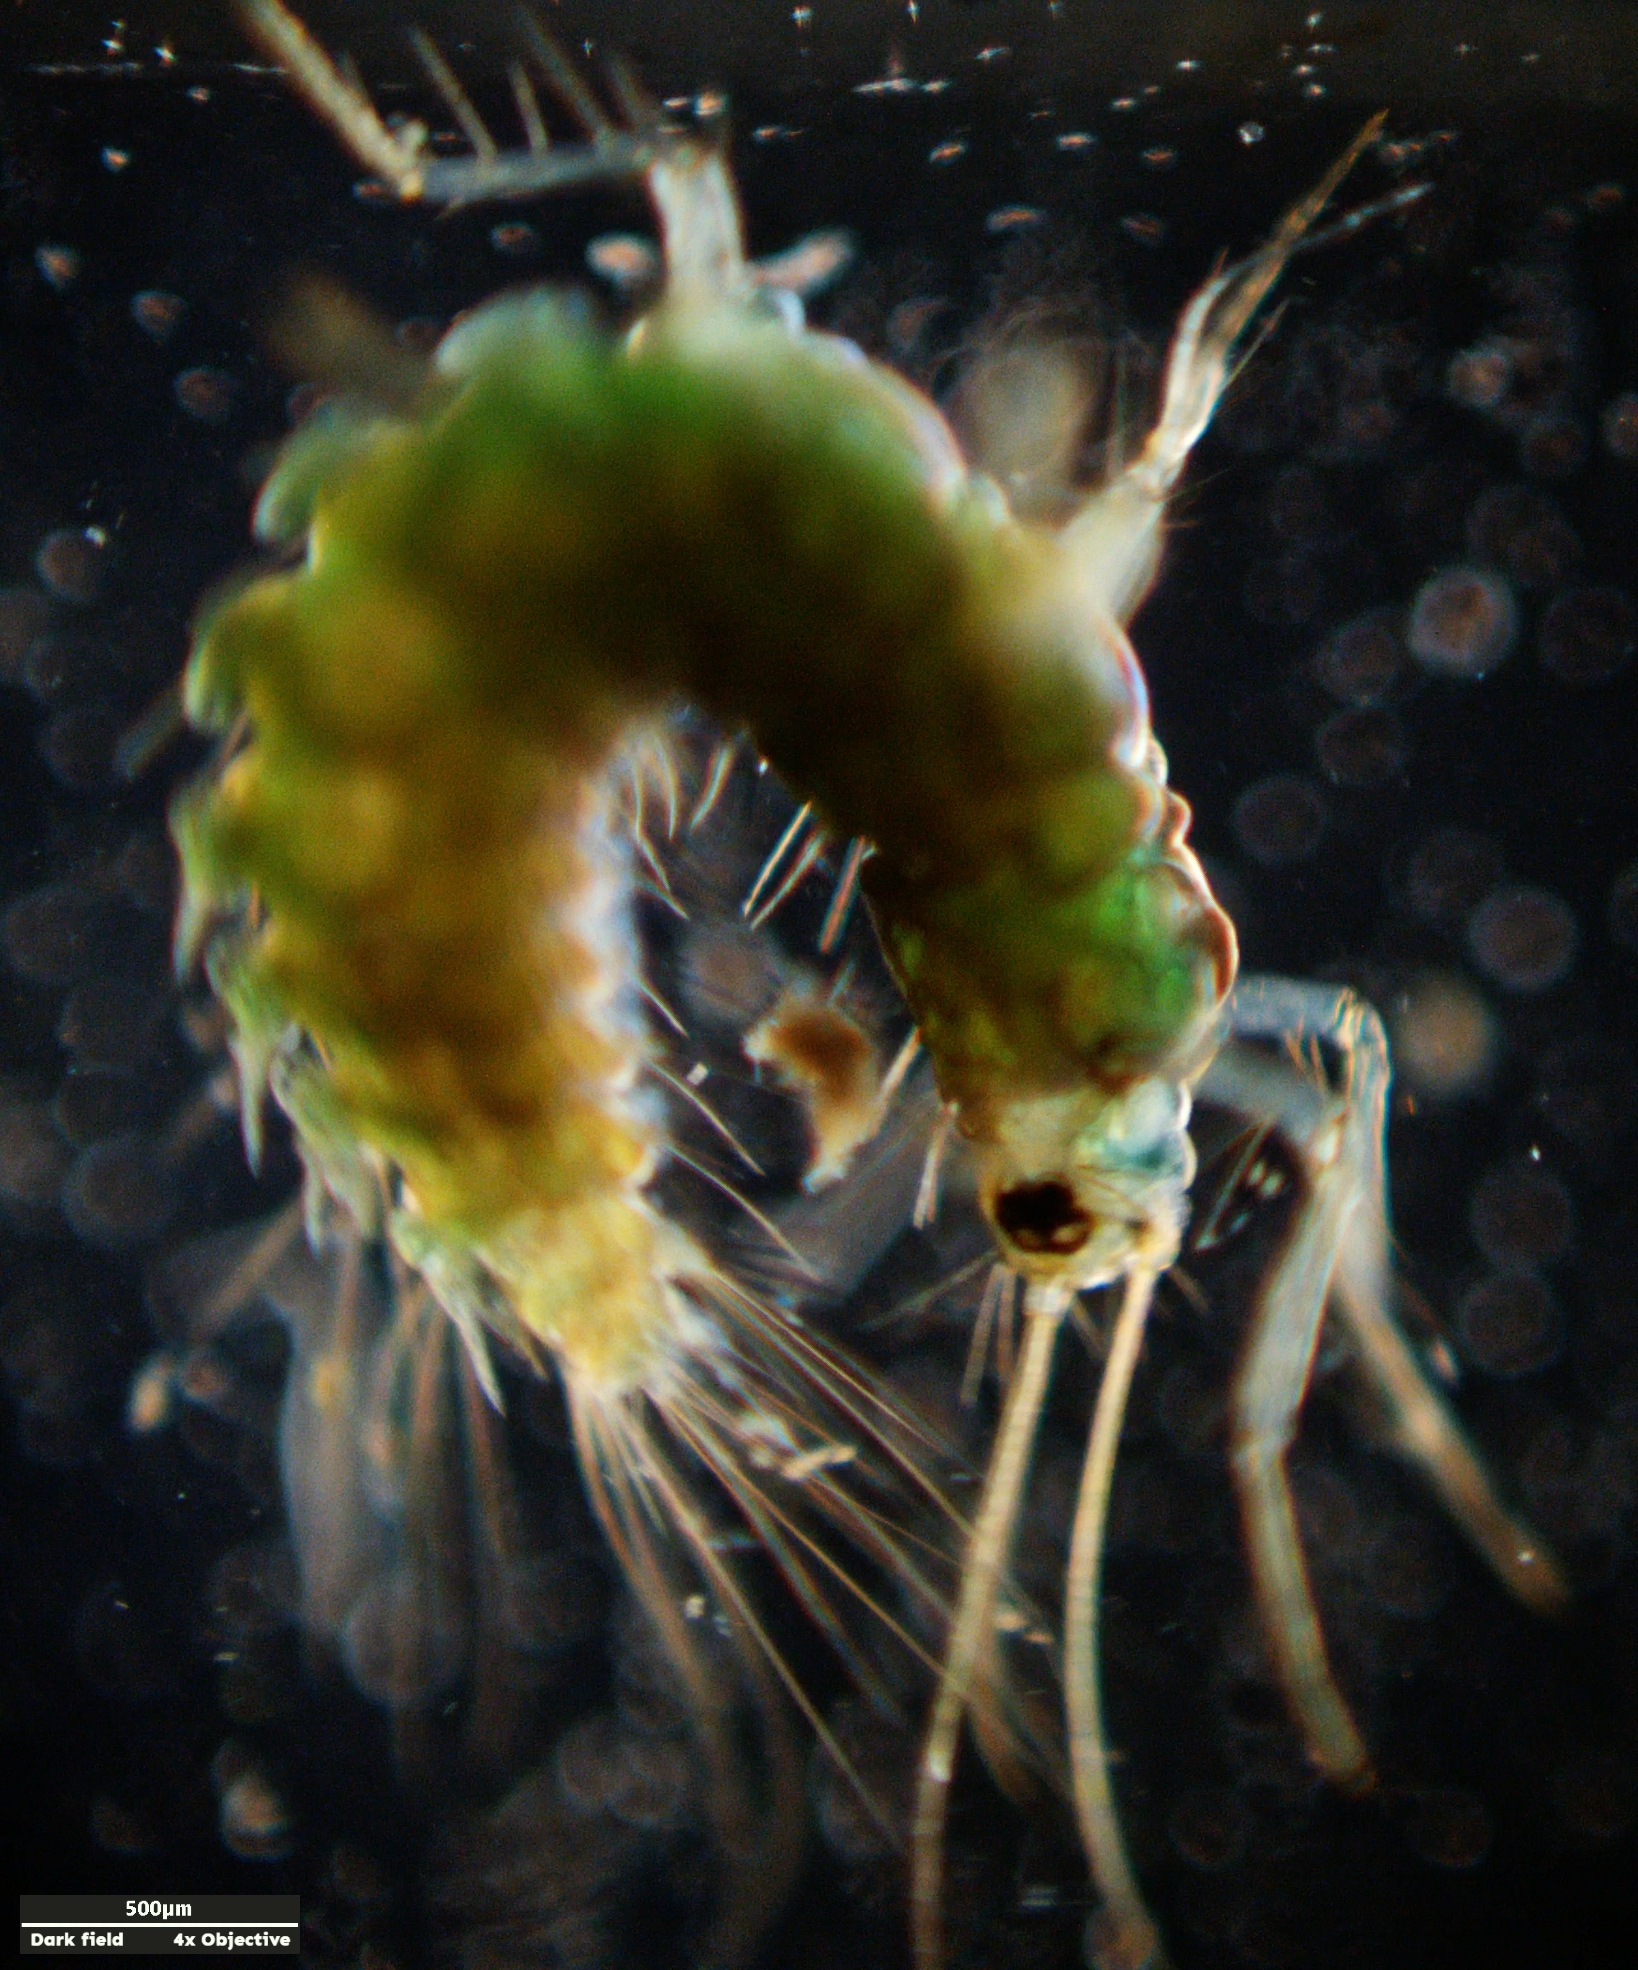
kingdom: Animalia
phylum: Arthropoda
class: Insecta
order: Neuroptera
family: Sisyridae
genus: Sisyra
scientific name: Sisyra nigra
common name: Black spongillafly
